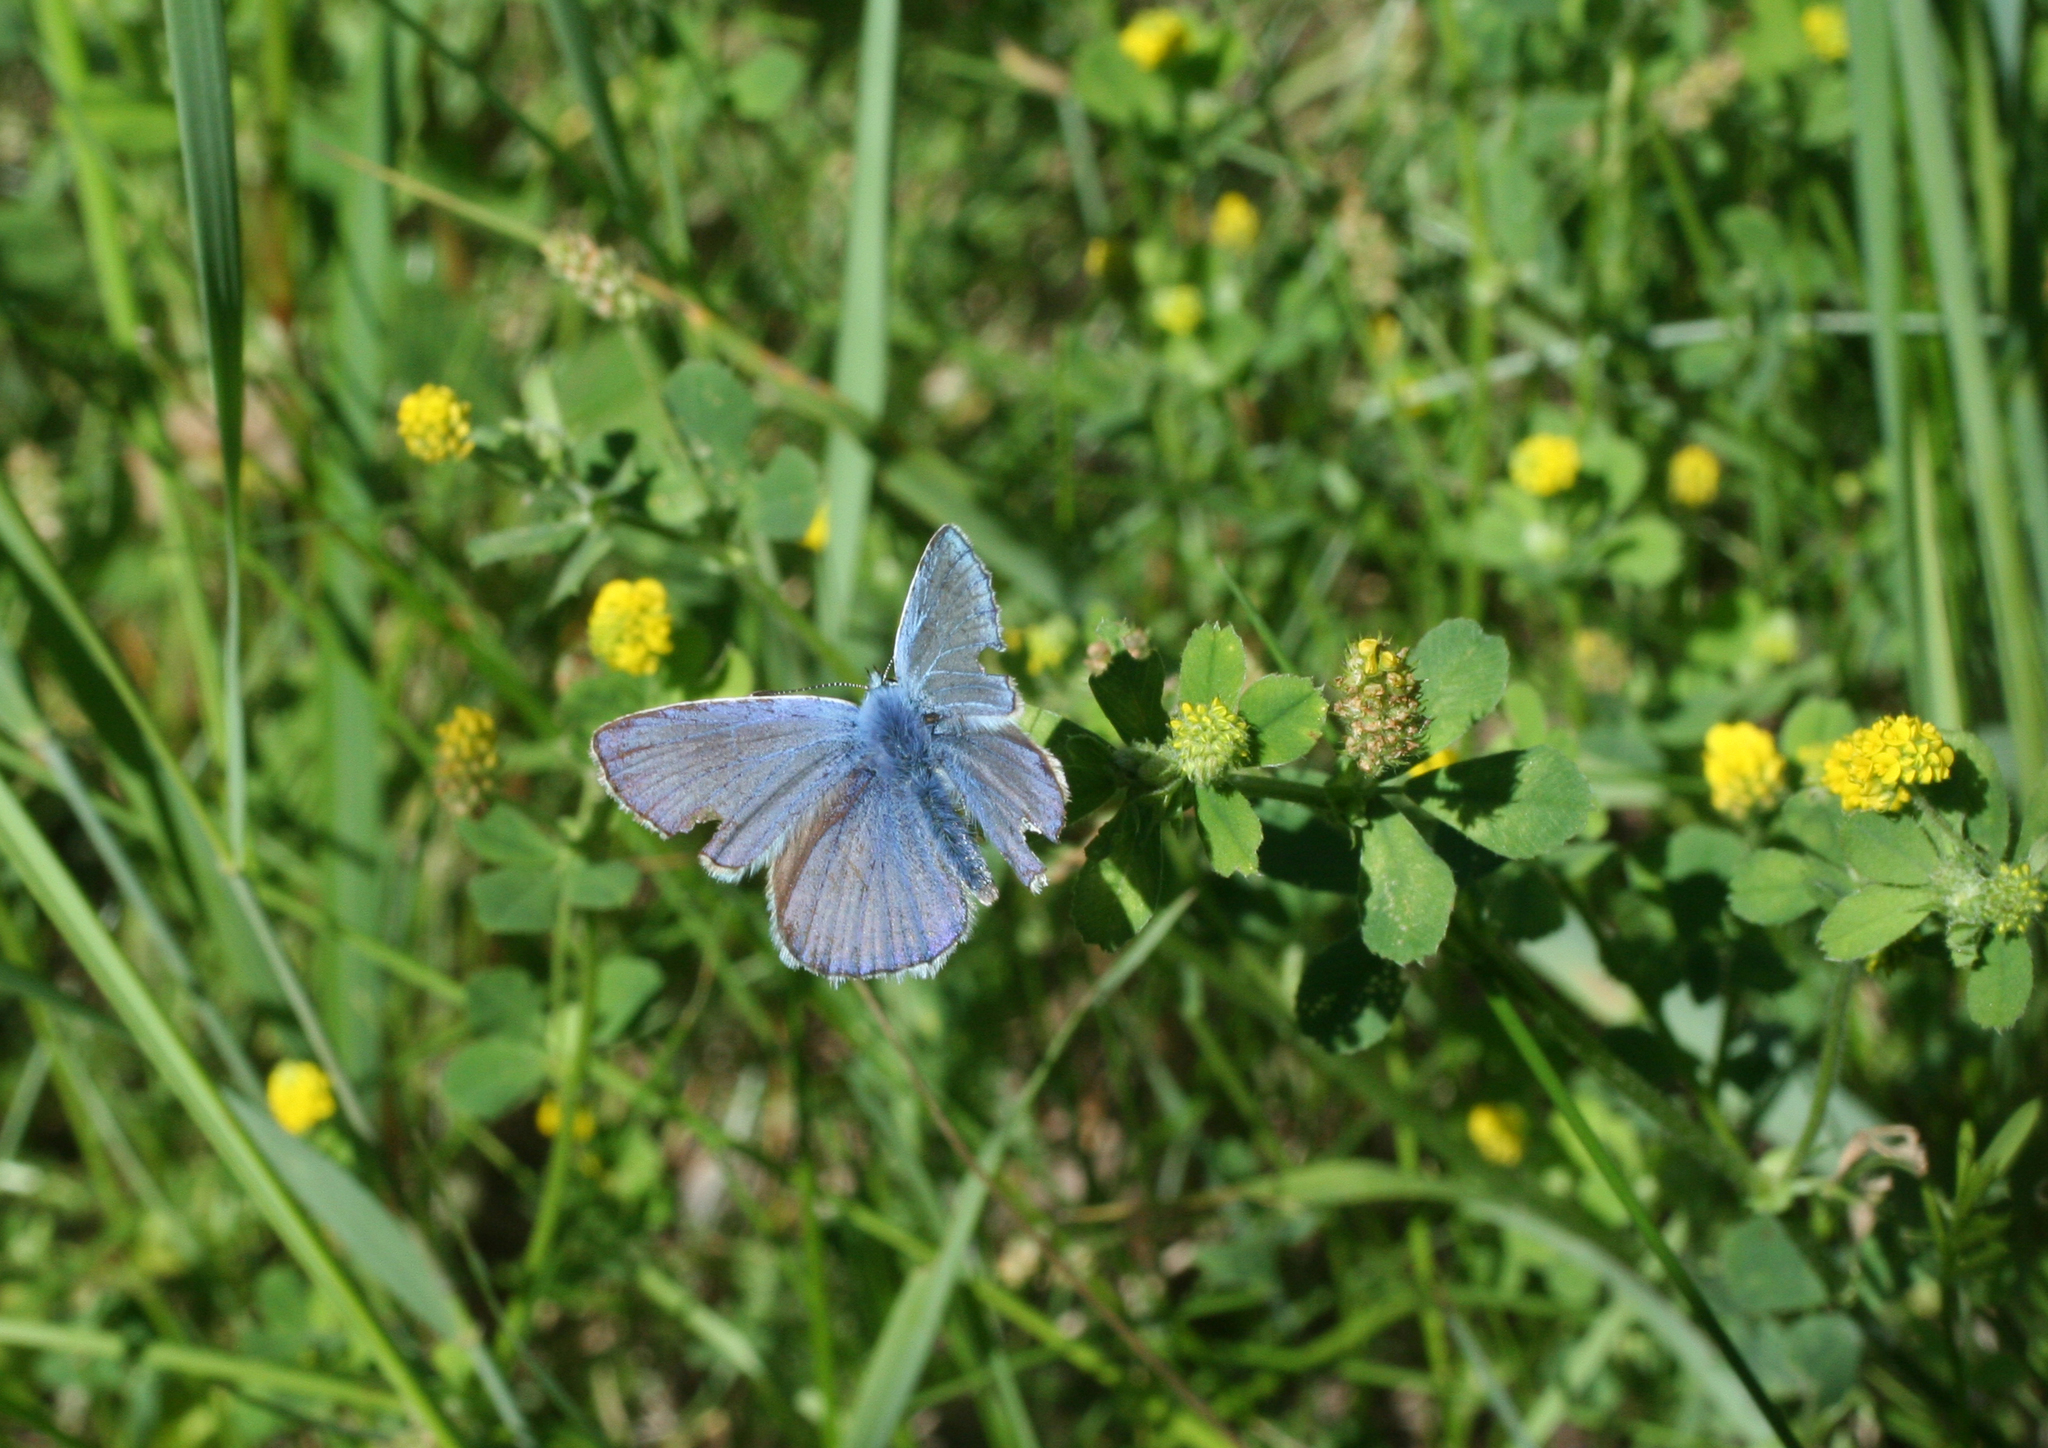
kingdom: Plantae
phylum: Tracheophyta
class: Magnoliopsida
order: Fabales
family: Fabaceae
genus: Medicago
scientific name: Medicago lupulina
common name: Black medick
